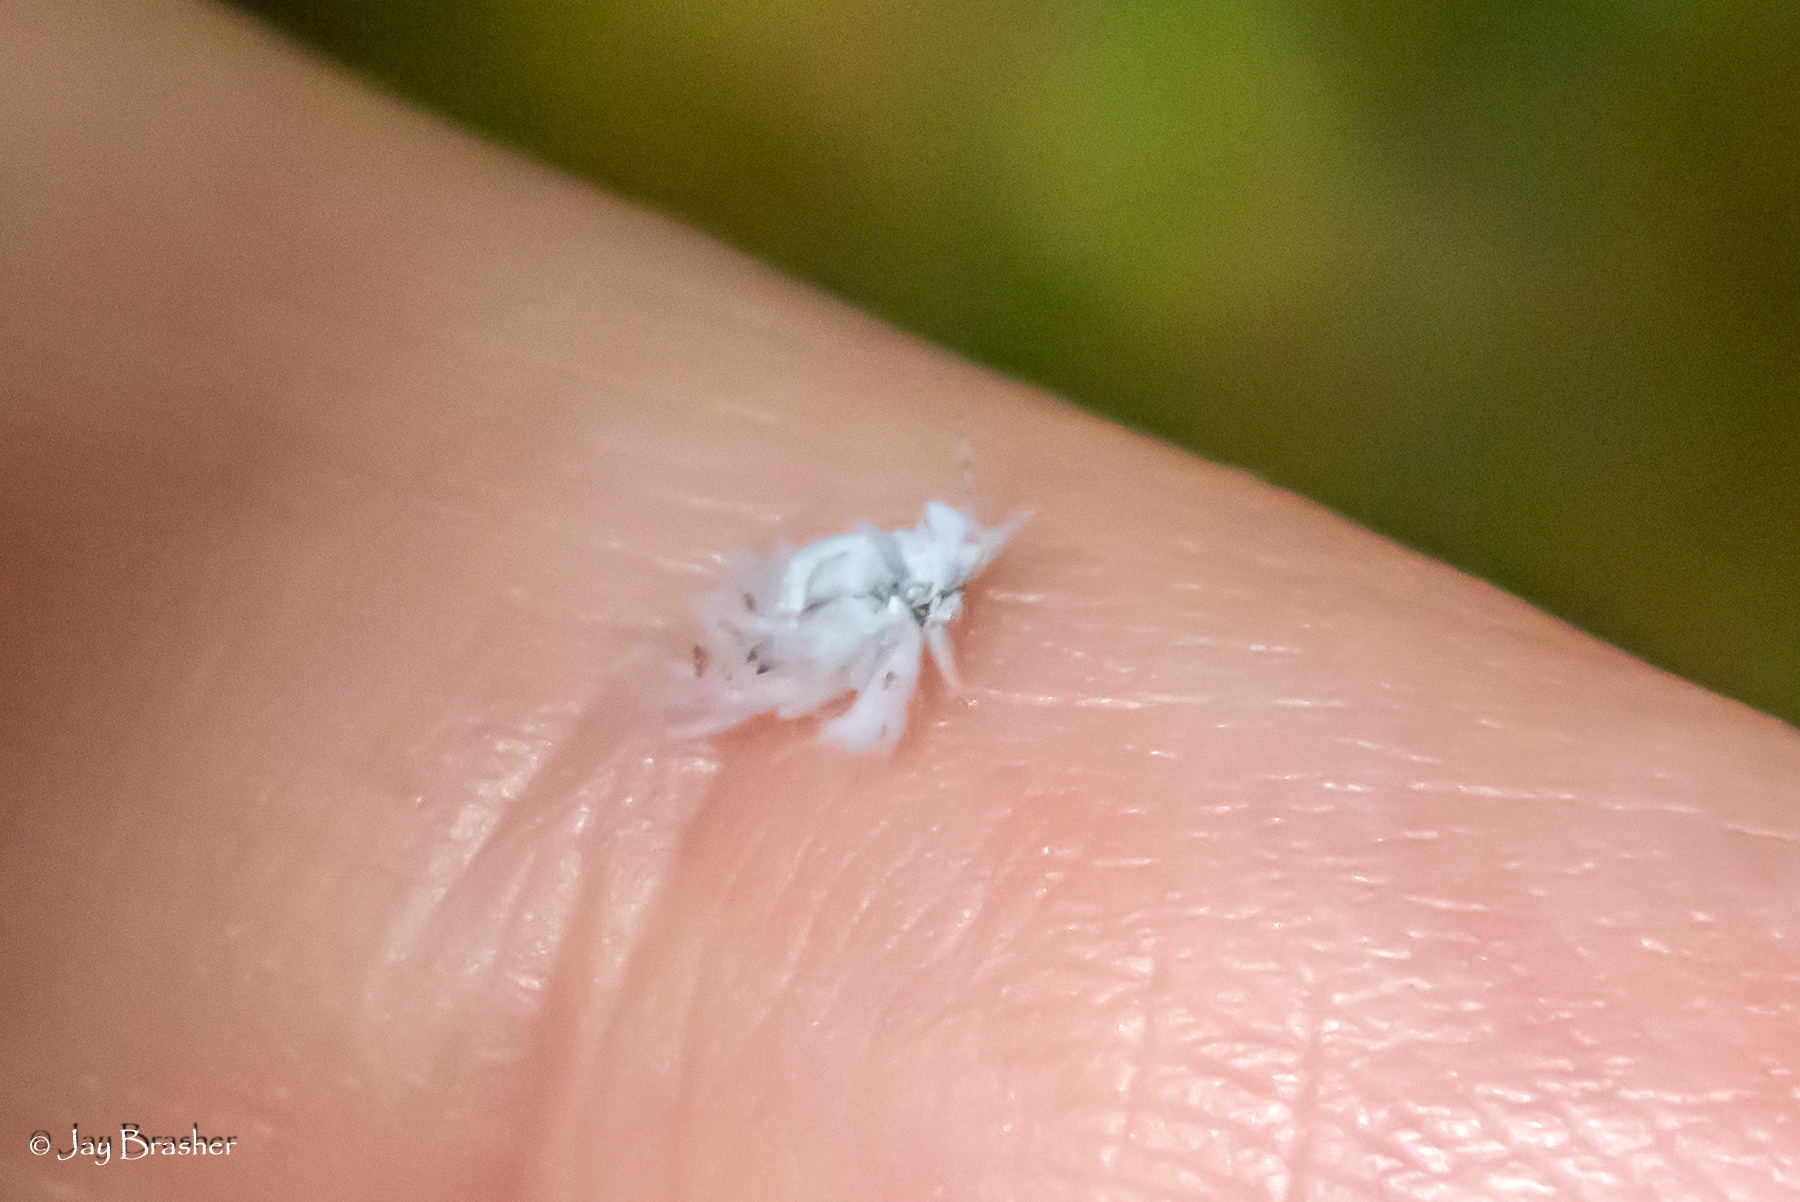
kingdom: Animalia
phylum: Arthropoda
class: Insecta
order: Hemiptera
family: Aphididae
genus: Shivaphis
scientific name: Shivaphis celti
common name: Asian wooly hackberry aphid
